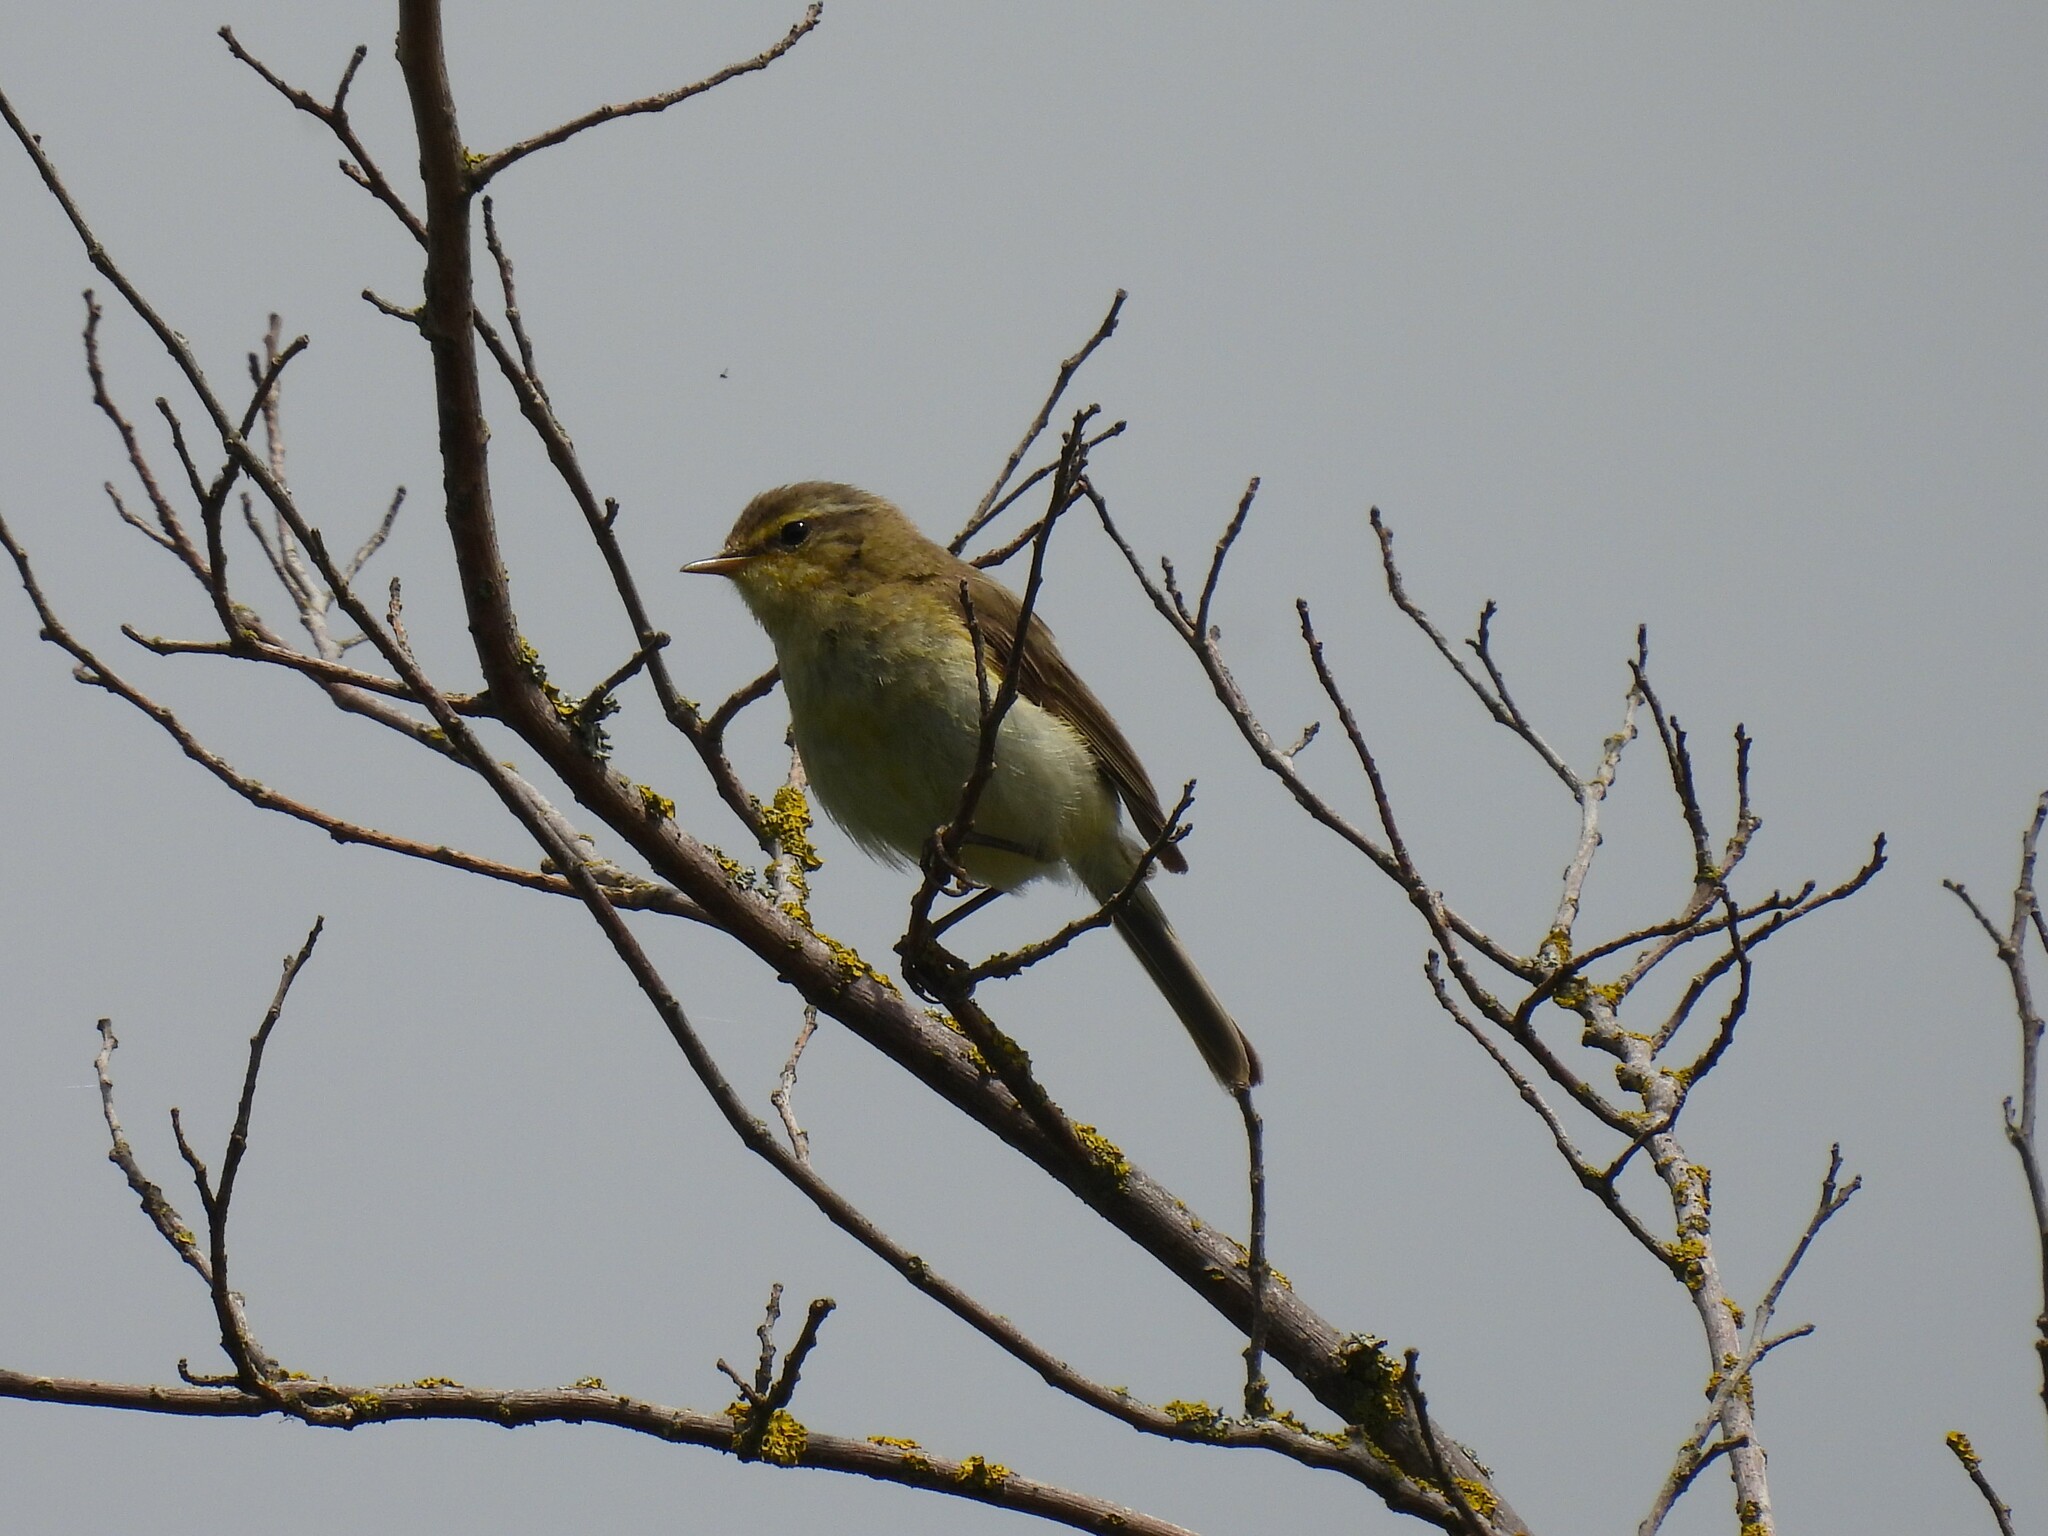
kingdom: Animalia
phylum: Chordata
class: Aves
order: Passeriformes
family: Phylloscopidae
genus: Phylloscopus
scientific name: Phylloscopus collybita
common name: Common chiffchaff
